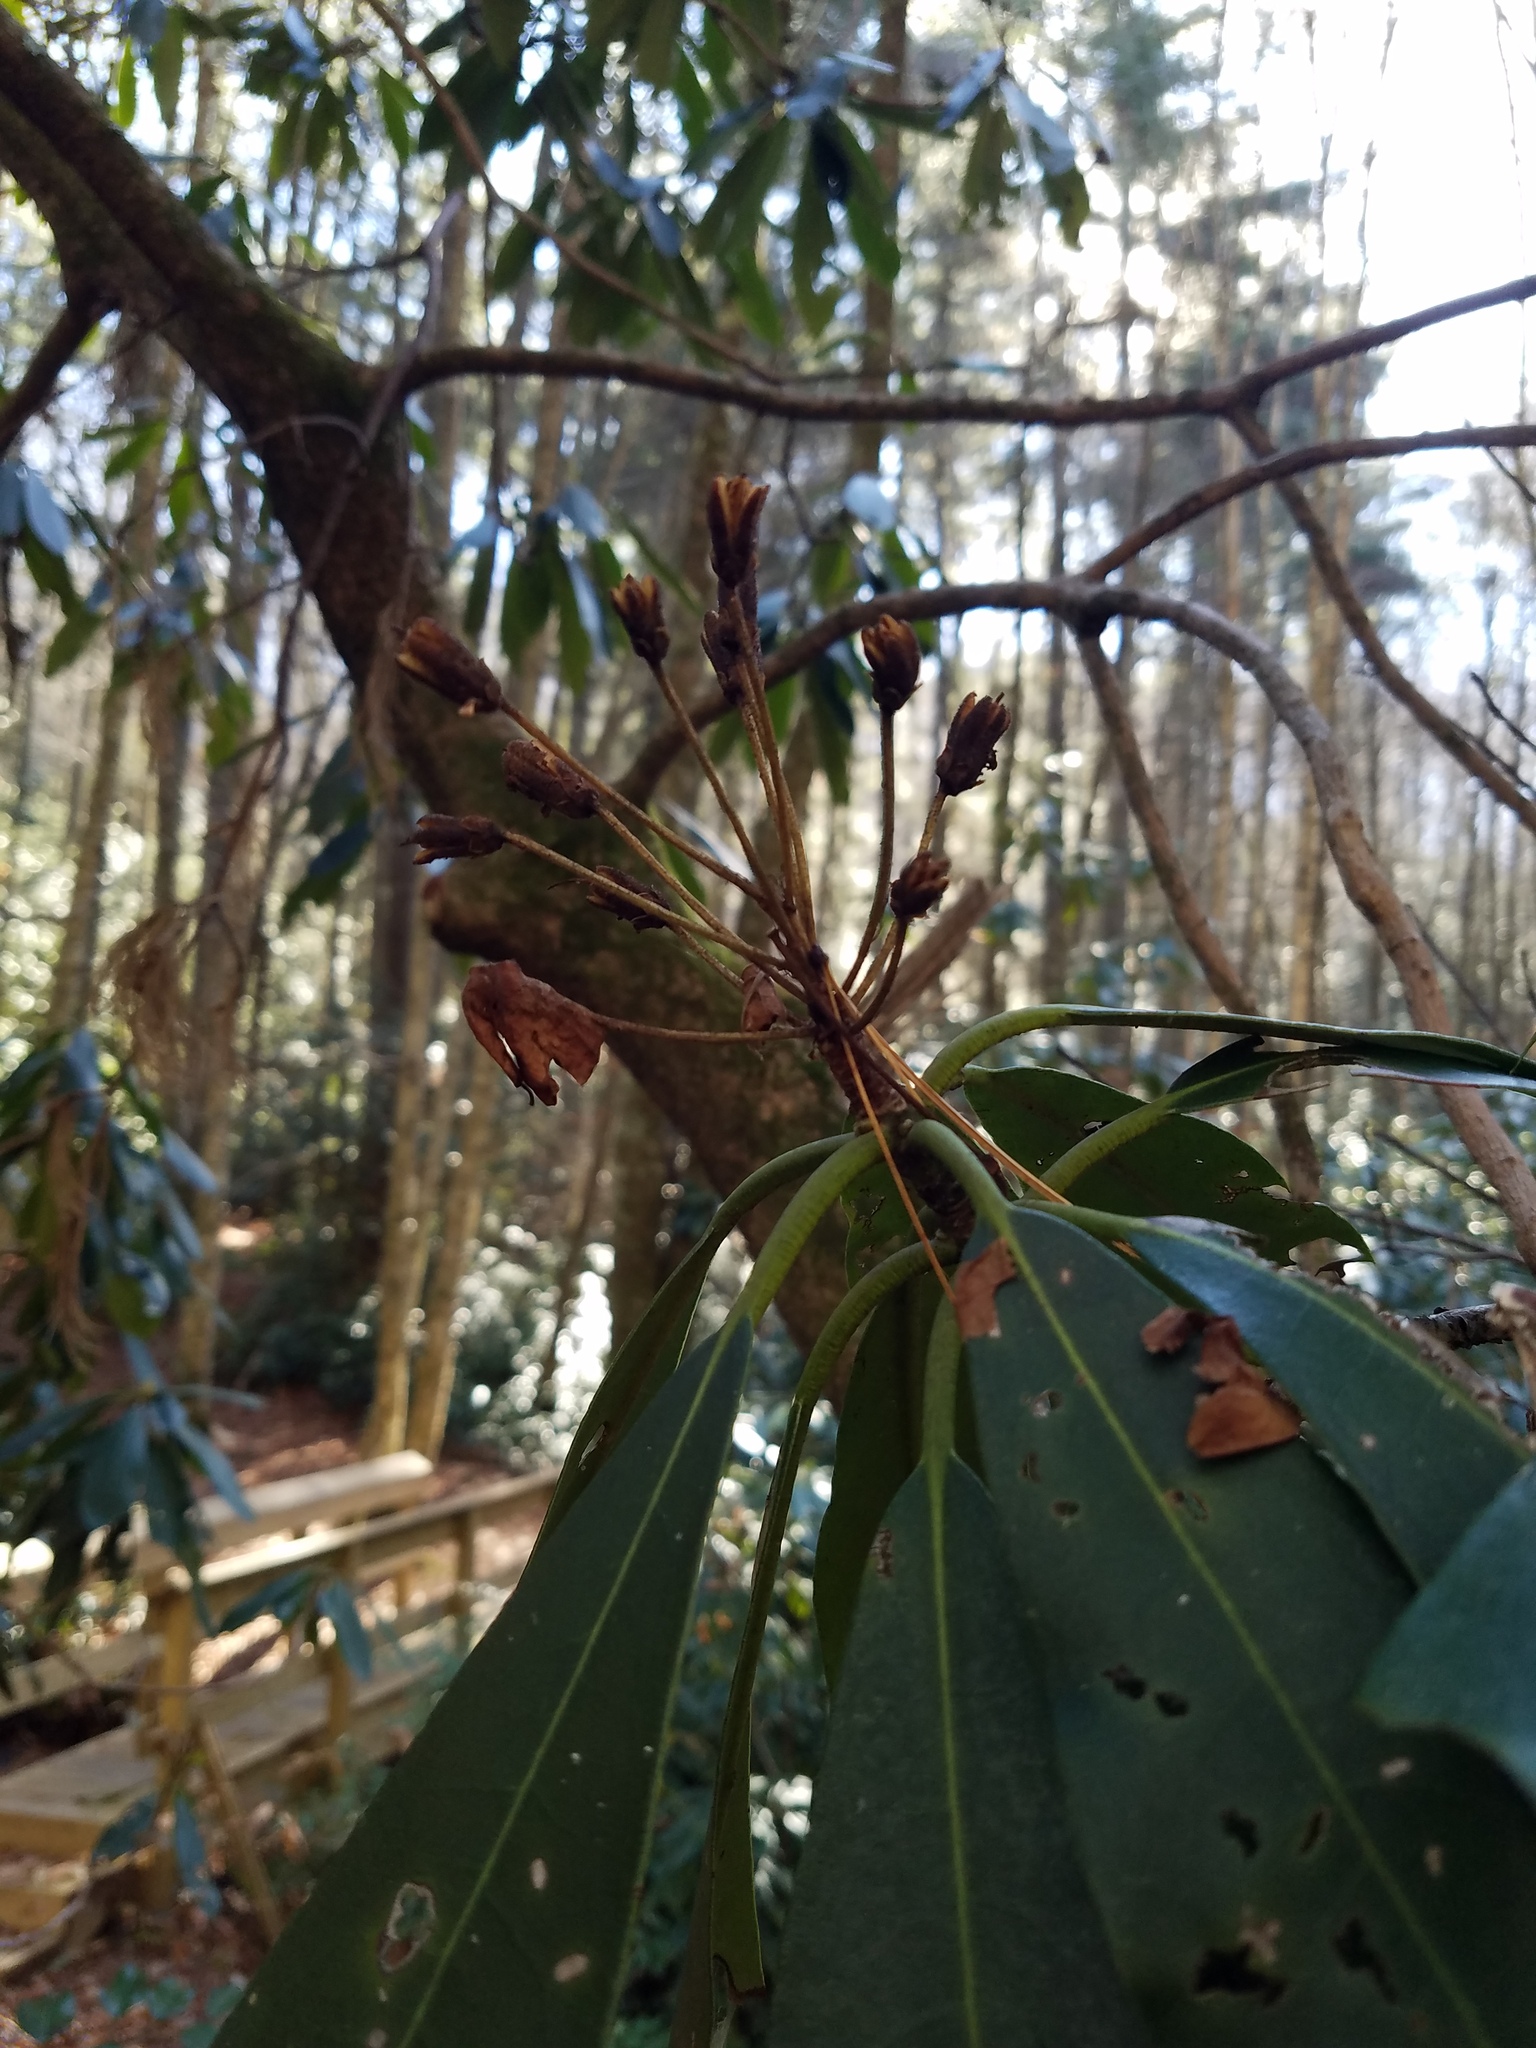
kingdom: Plantae
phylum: Tracheophyta
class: Magnoliopsida
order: Ericales
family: Ericaceae
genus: Rhododendron
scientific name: Rhododendron maximum
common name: Great rhododendron
